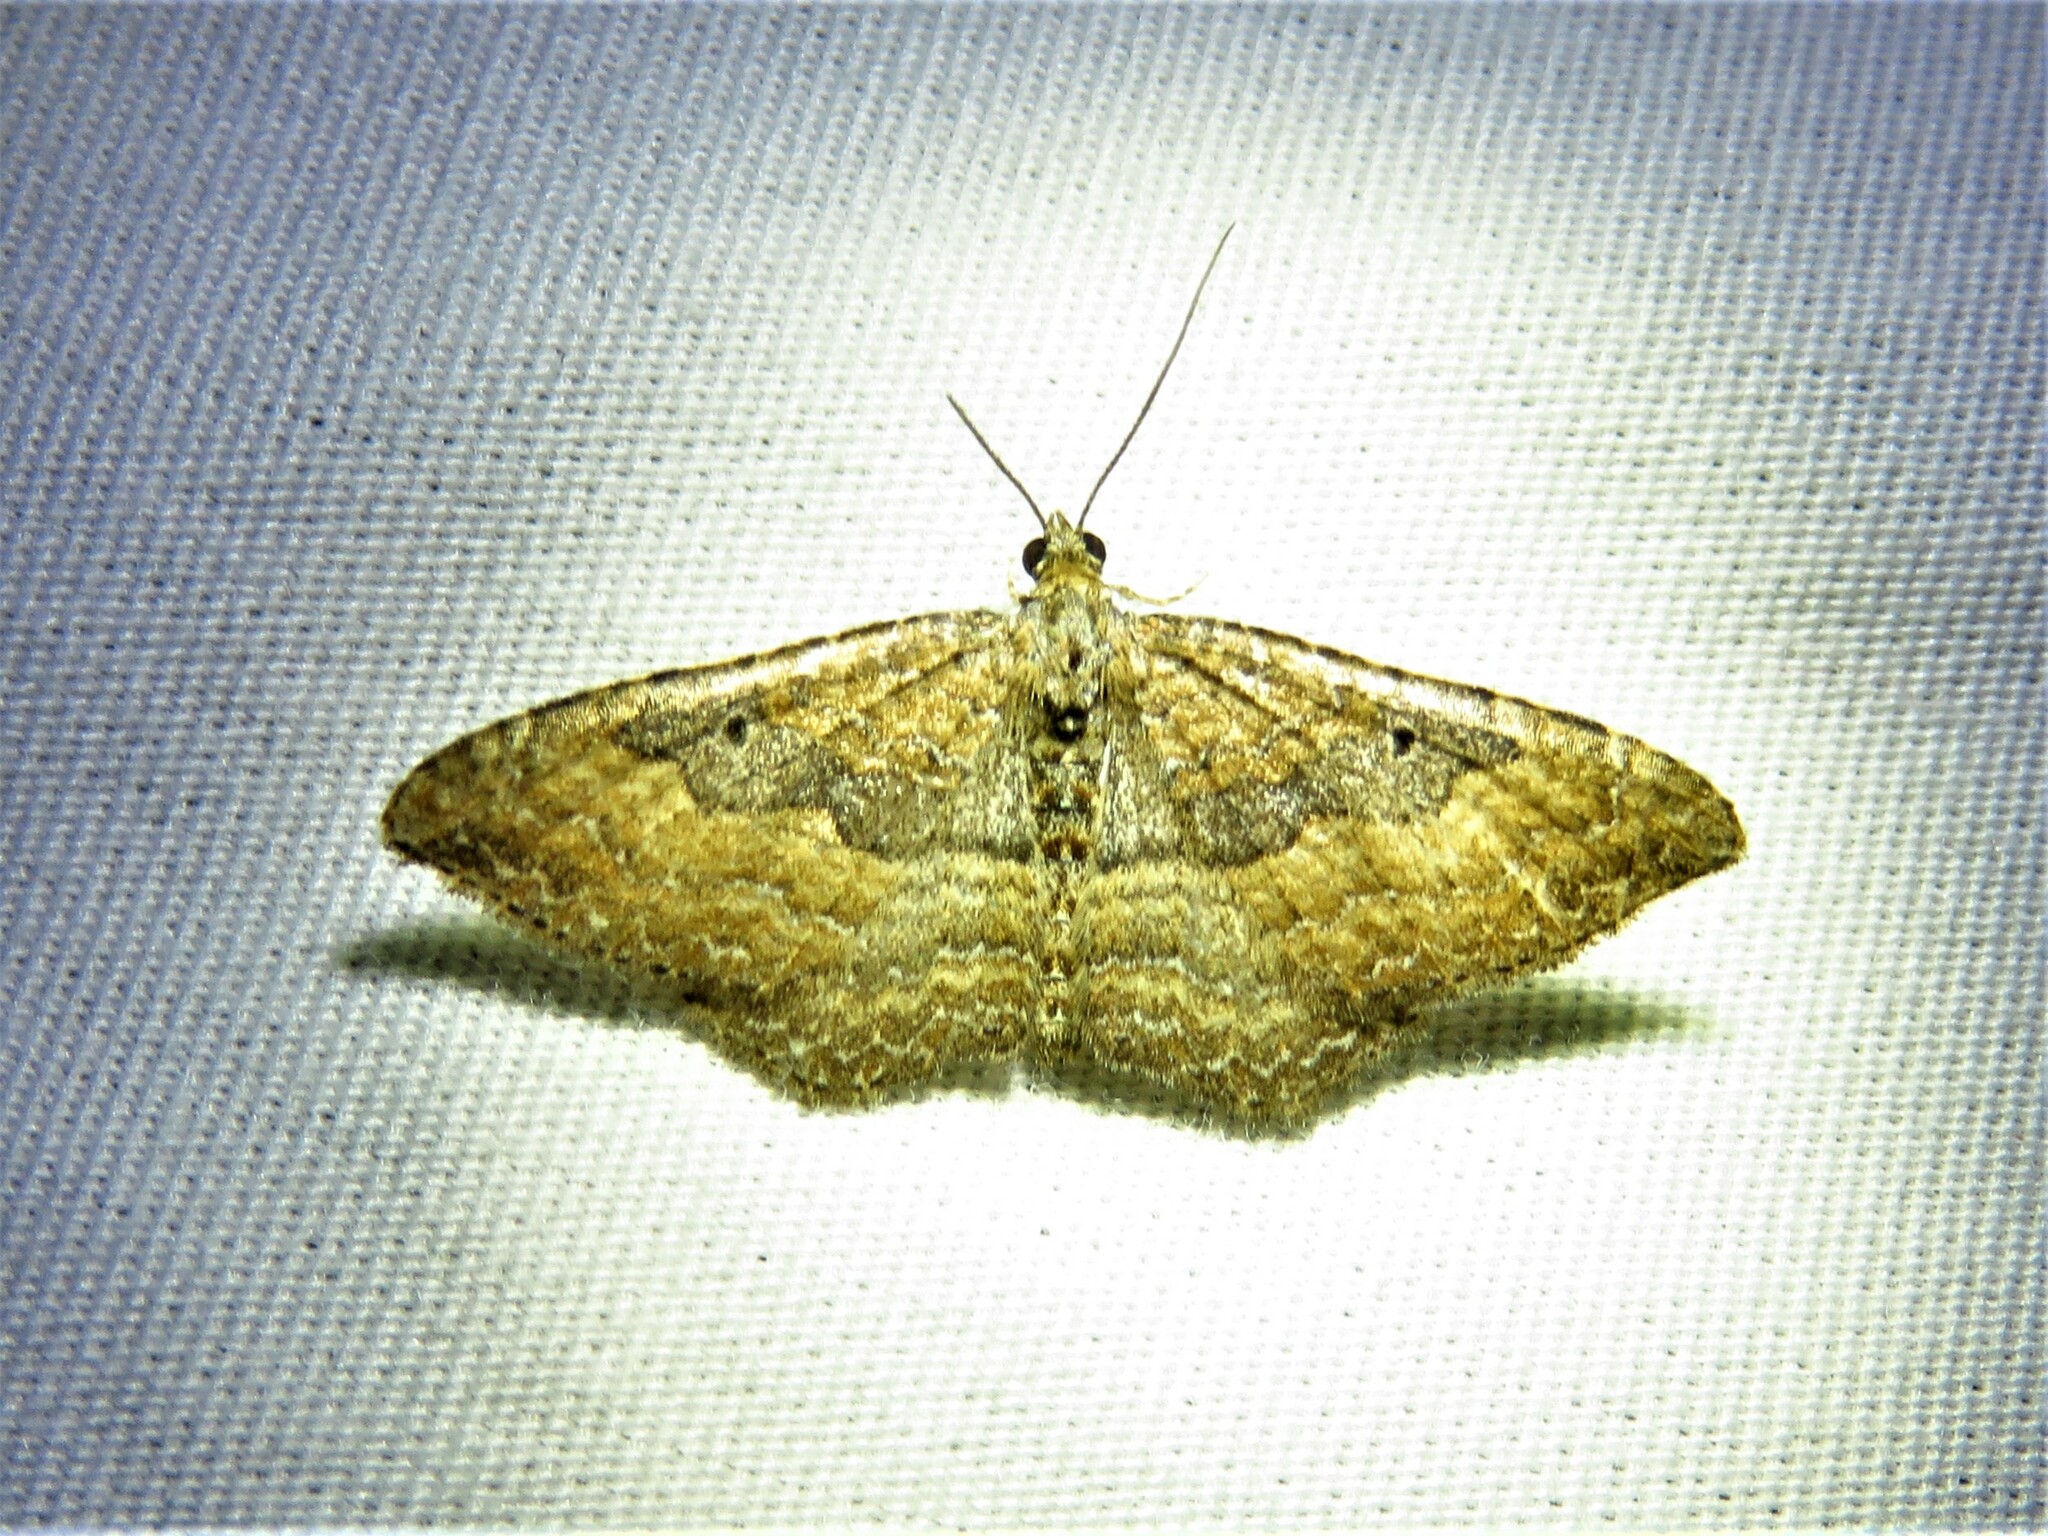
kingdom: Animalia
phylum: Arthropoda
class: Insecta
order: Lepidoptera
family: Geometridae
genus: Orthonama
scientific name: Orthonama obstipata
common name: The gem
